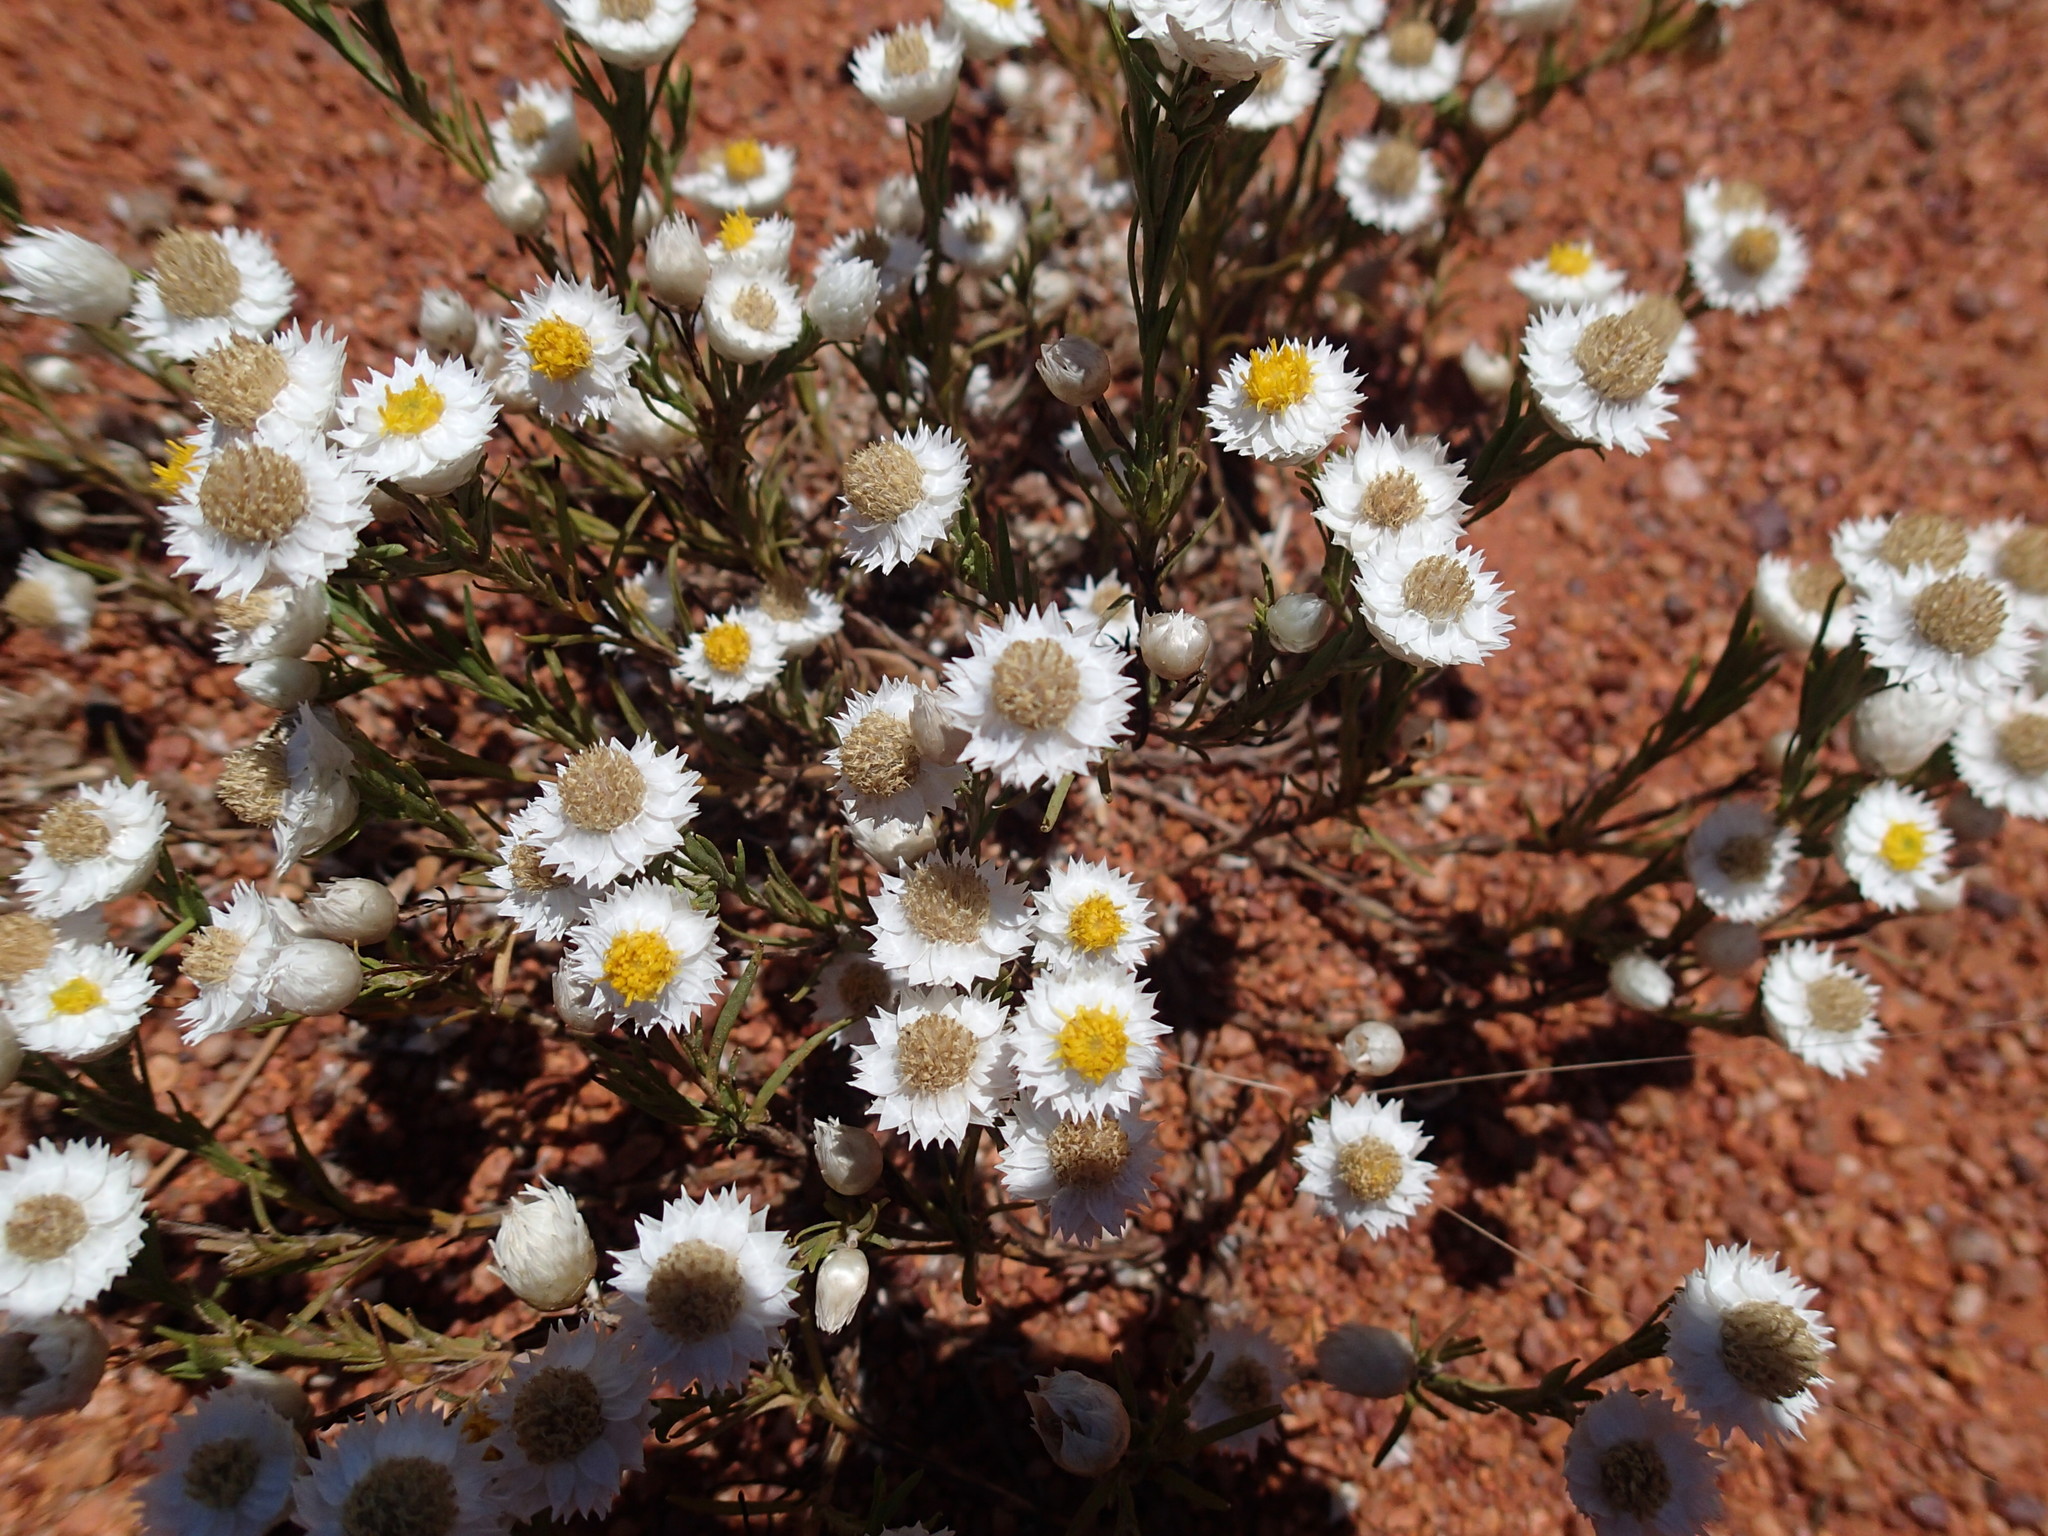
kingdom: Plantae
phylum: Tracheophyta
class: Magnoliopsida
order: Asterales
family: Asteraceae
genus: Rhodanthe
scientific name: Rhodanthe floribunda
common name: Flowery sunray
